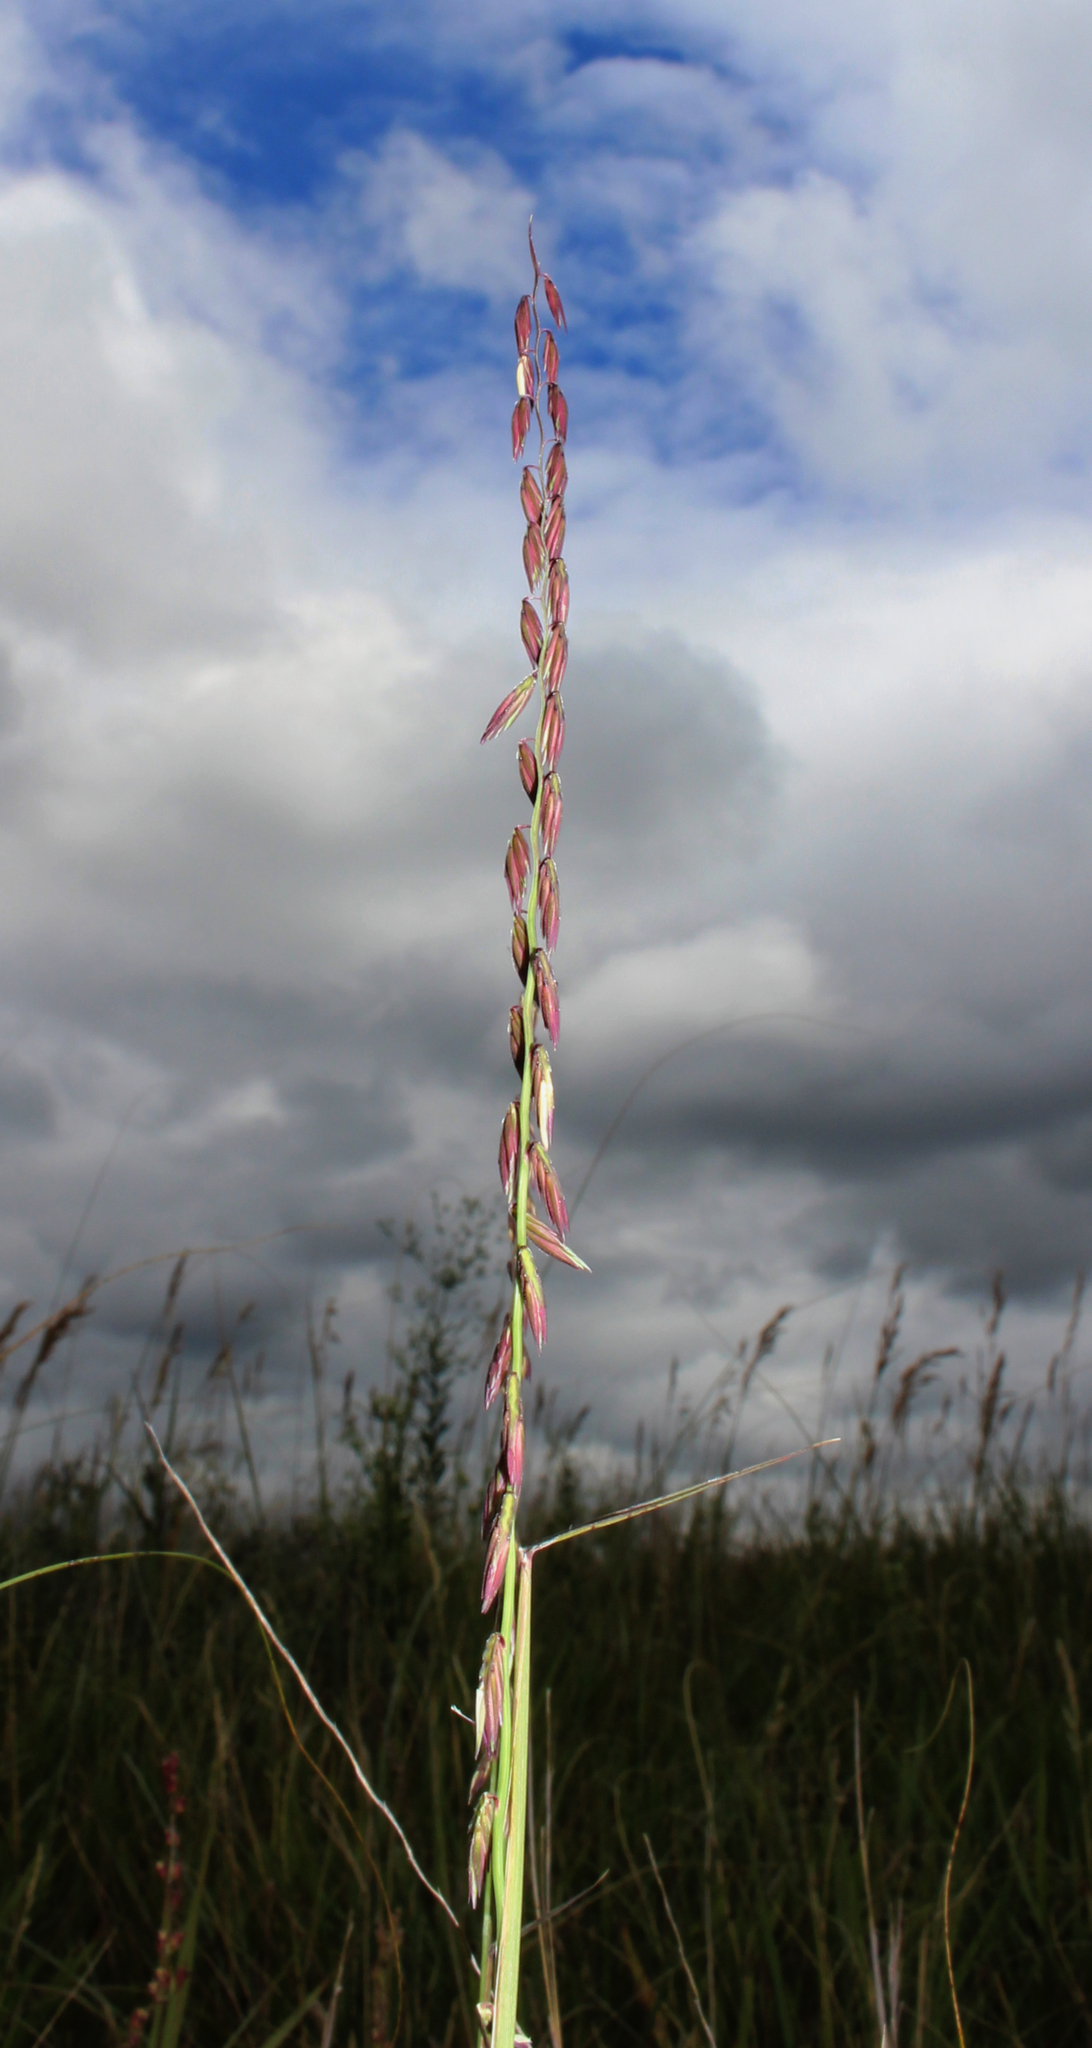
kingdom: Plantae
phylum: Tracheophyta
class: Liliopsida
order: Poales
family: Poaceae
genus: Bouteloua
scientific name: Bouteloua curtipendula
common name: Side-oats grama
